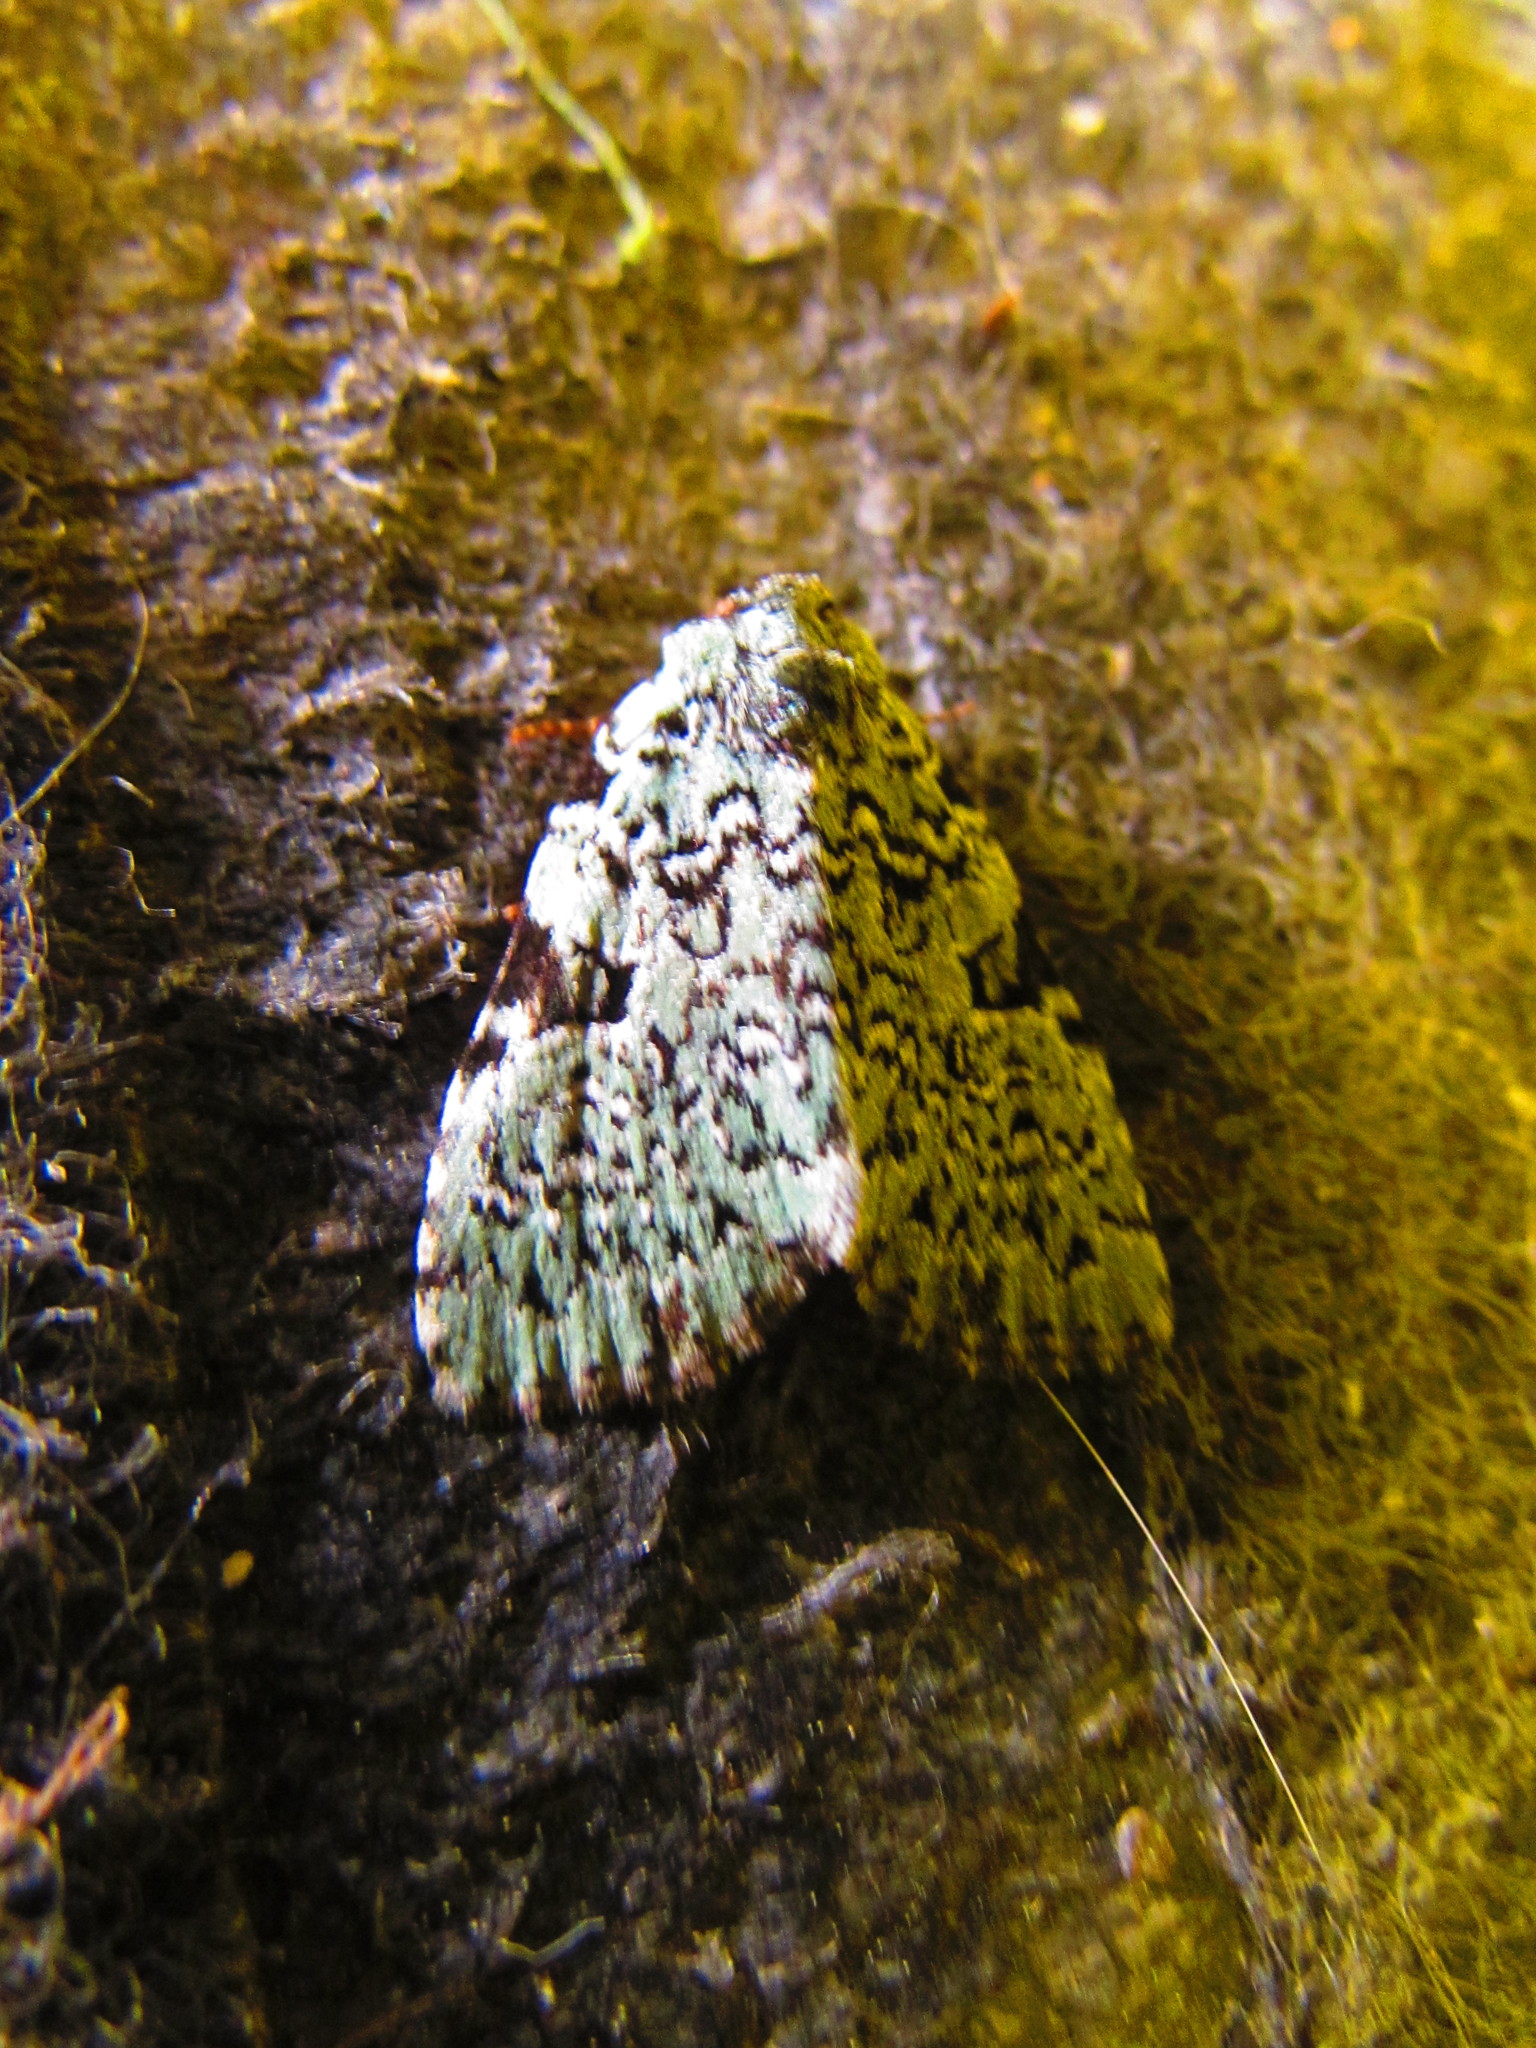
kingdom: Animalia
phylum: Arthropoda
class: Insecta
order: Lepidoptera
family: Noctuidae
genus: Leuconycta
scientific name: Leuconycta diphteroides
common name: Green leuconycta moth
